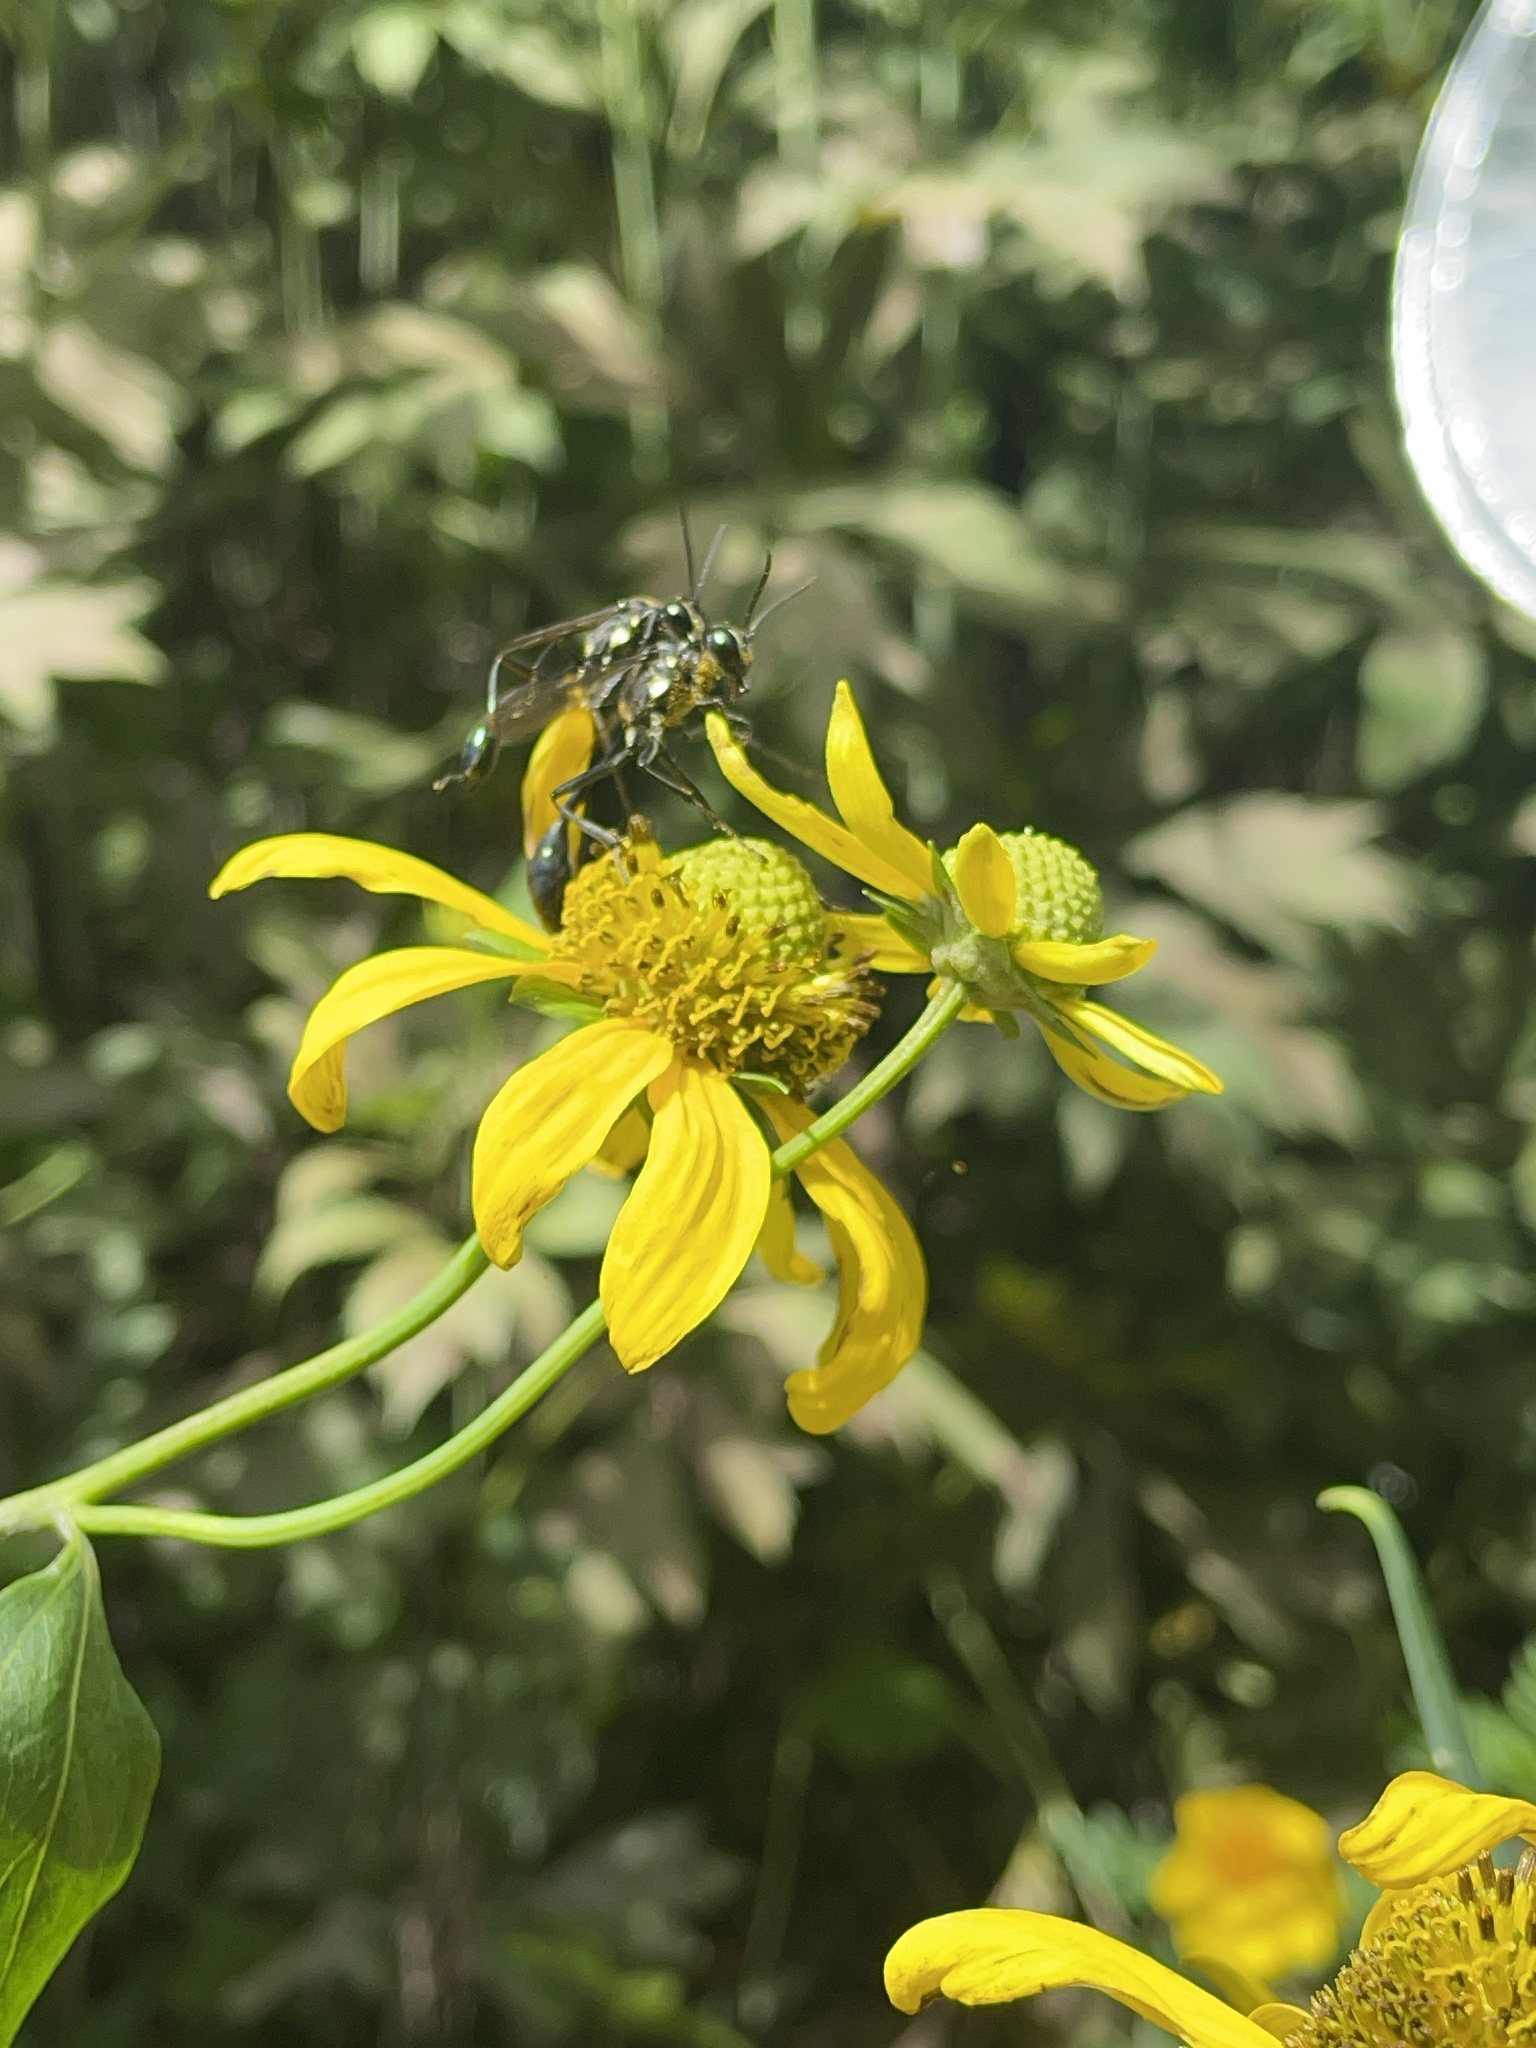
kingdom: Animalia
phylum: Arthropoda
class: Insecta
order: Hymenoptera
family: Sphecidae
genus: Eremnophila
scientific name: Eremnophila aureonotata
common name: Gold-marked thread-waisted wasp
